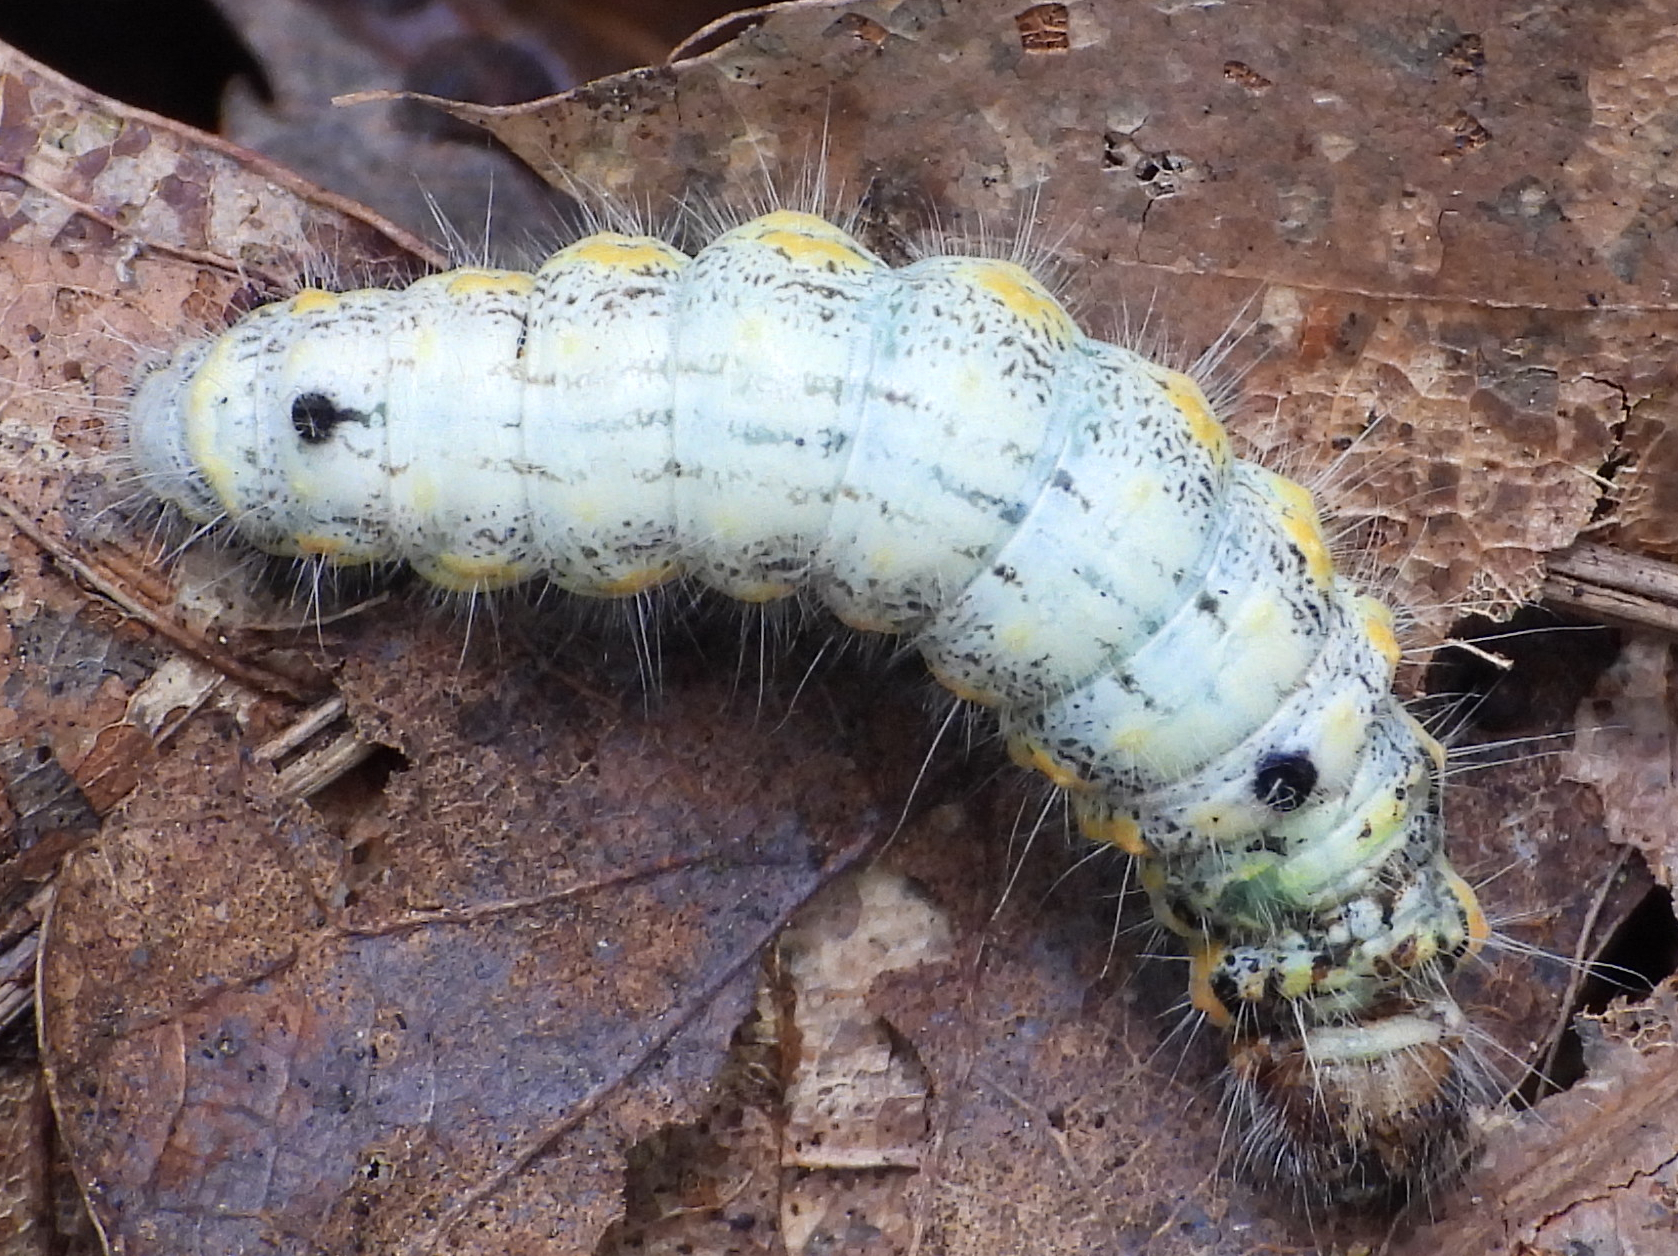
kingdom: Animalia
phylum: Arthropoda
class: Insecta
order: Lepidoptera
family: Notodontidae
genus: Clostera
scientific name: Clostera albosigma
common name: Sigmoid prominent
